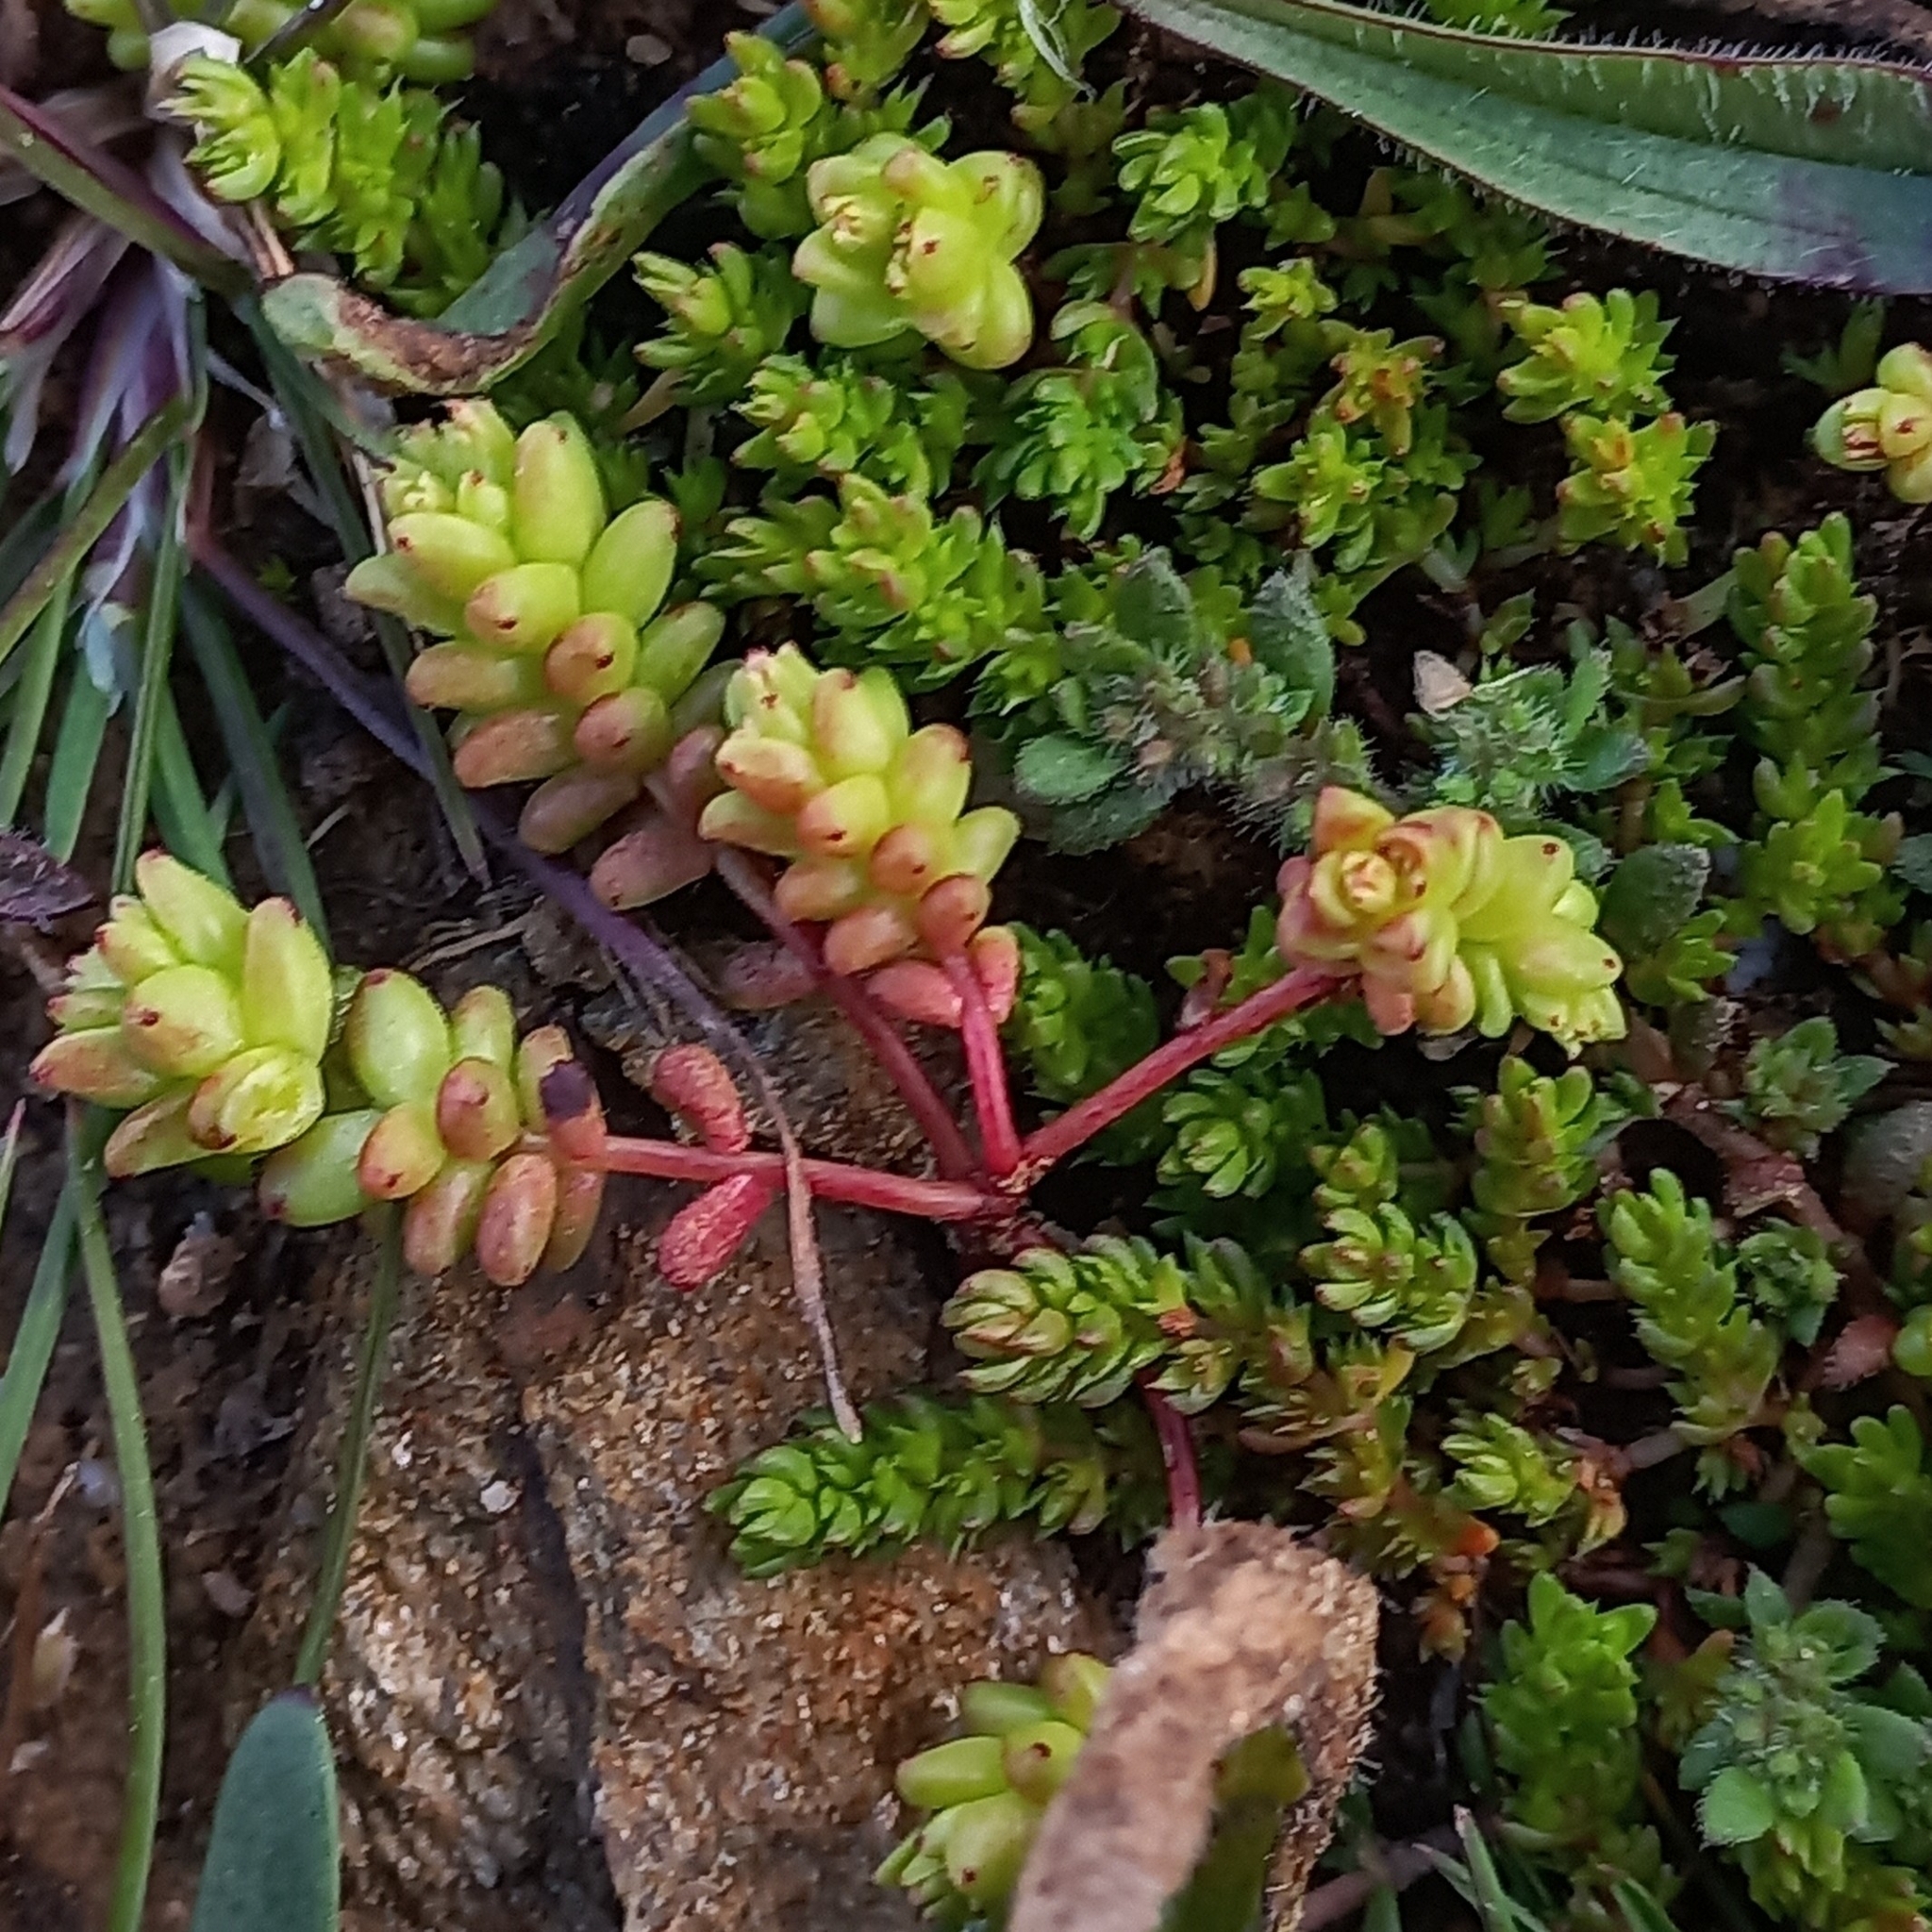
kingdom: Plantae
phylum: Tracheophyta
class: Magnoliopsida
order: Saxifragales
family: Crassulaceae
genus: Sedum
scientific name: Sedum cespitosum
